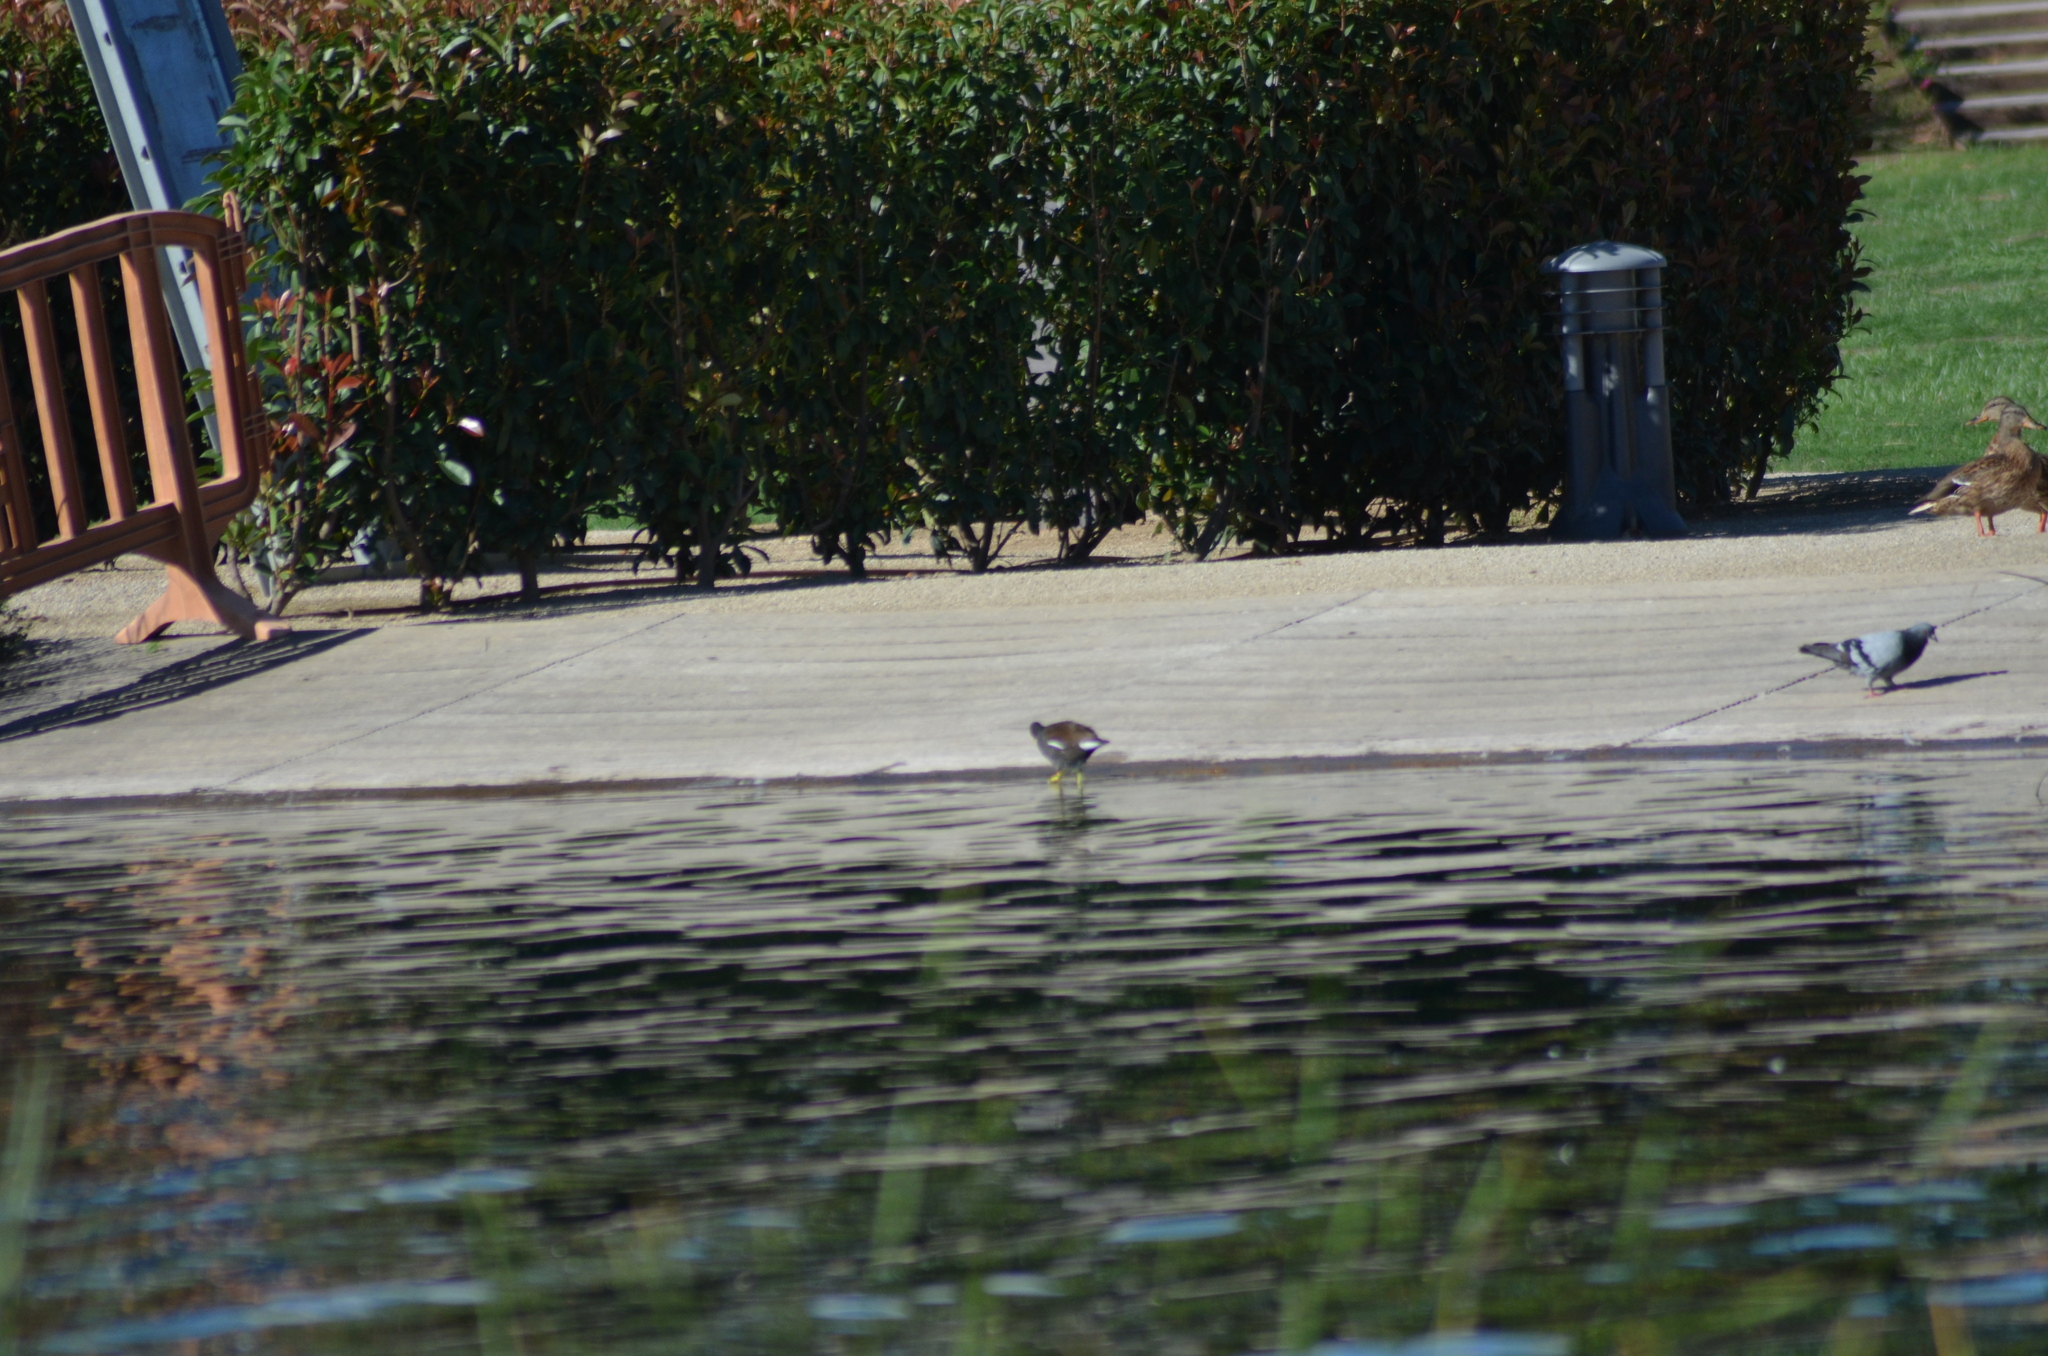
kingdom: Animalia
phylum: Chordata
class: Aves
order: Gruiformes
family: Rallidae
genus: Gallinula
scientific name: Gallinula chloropus
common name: Common moorhen
